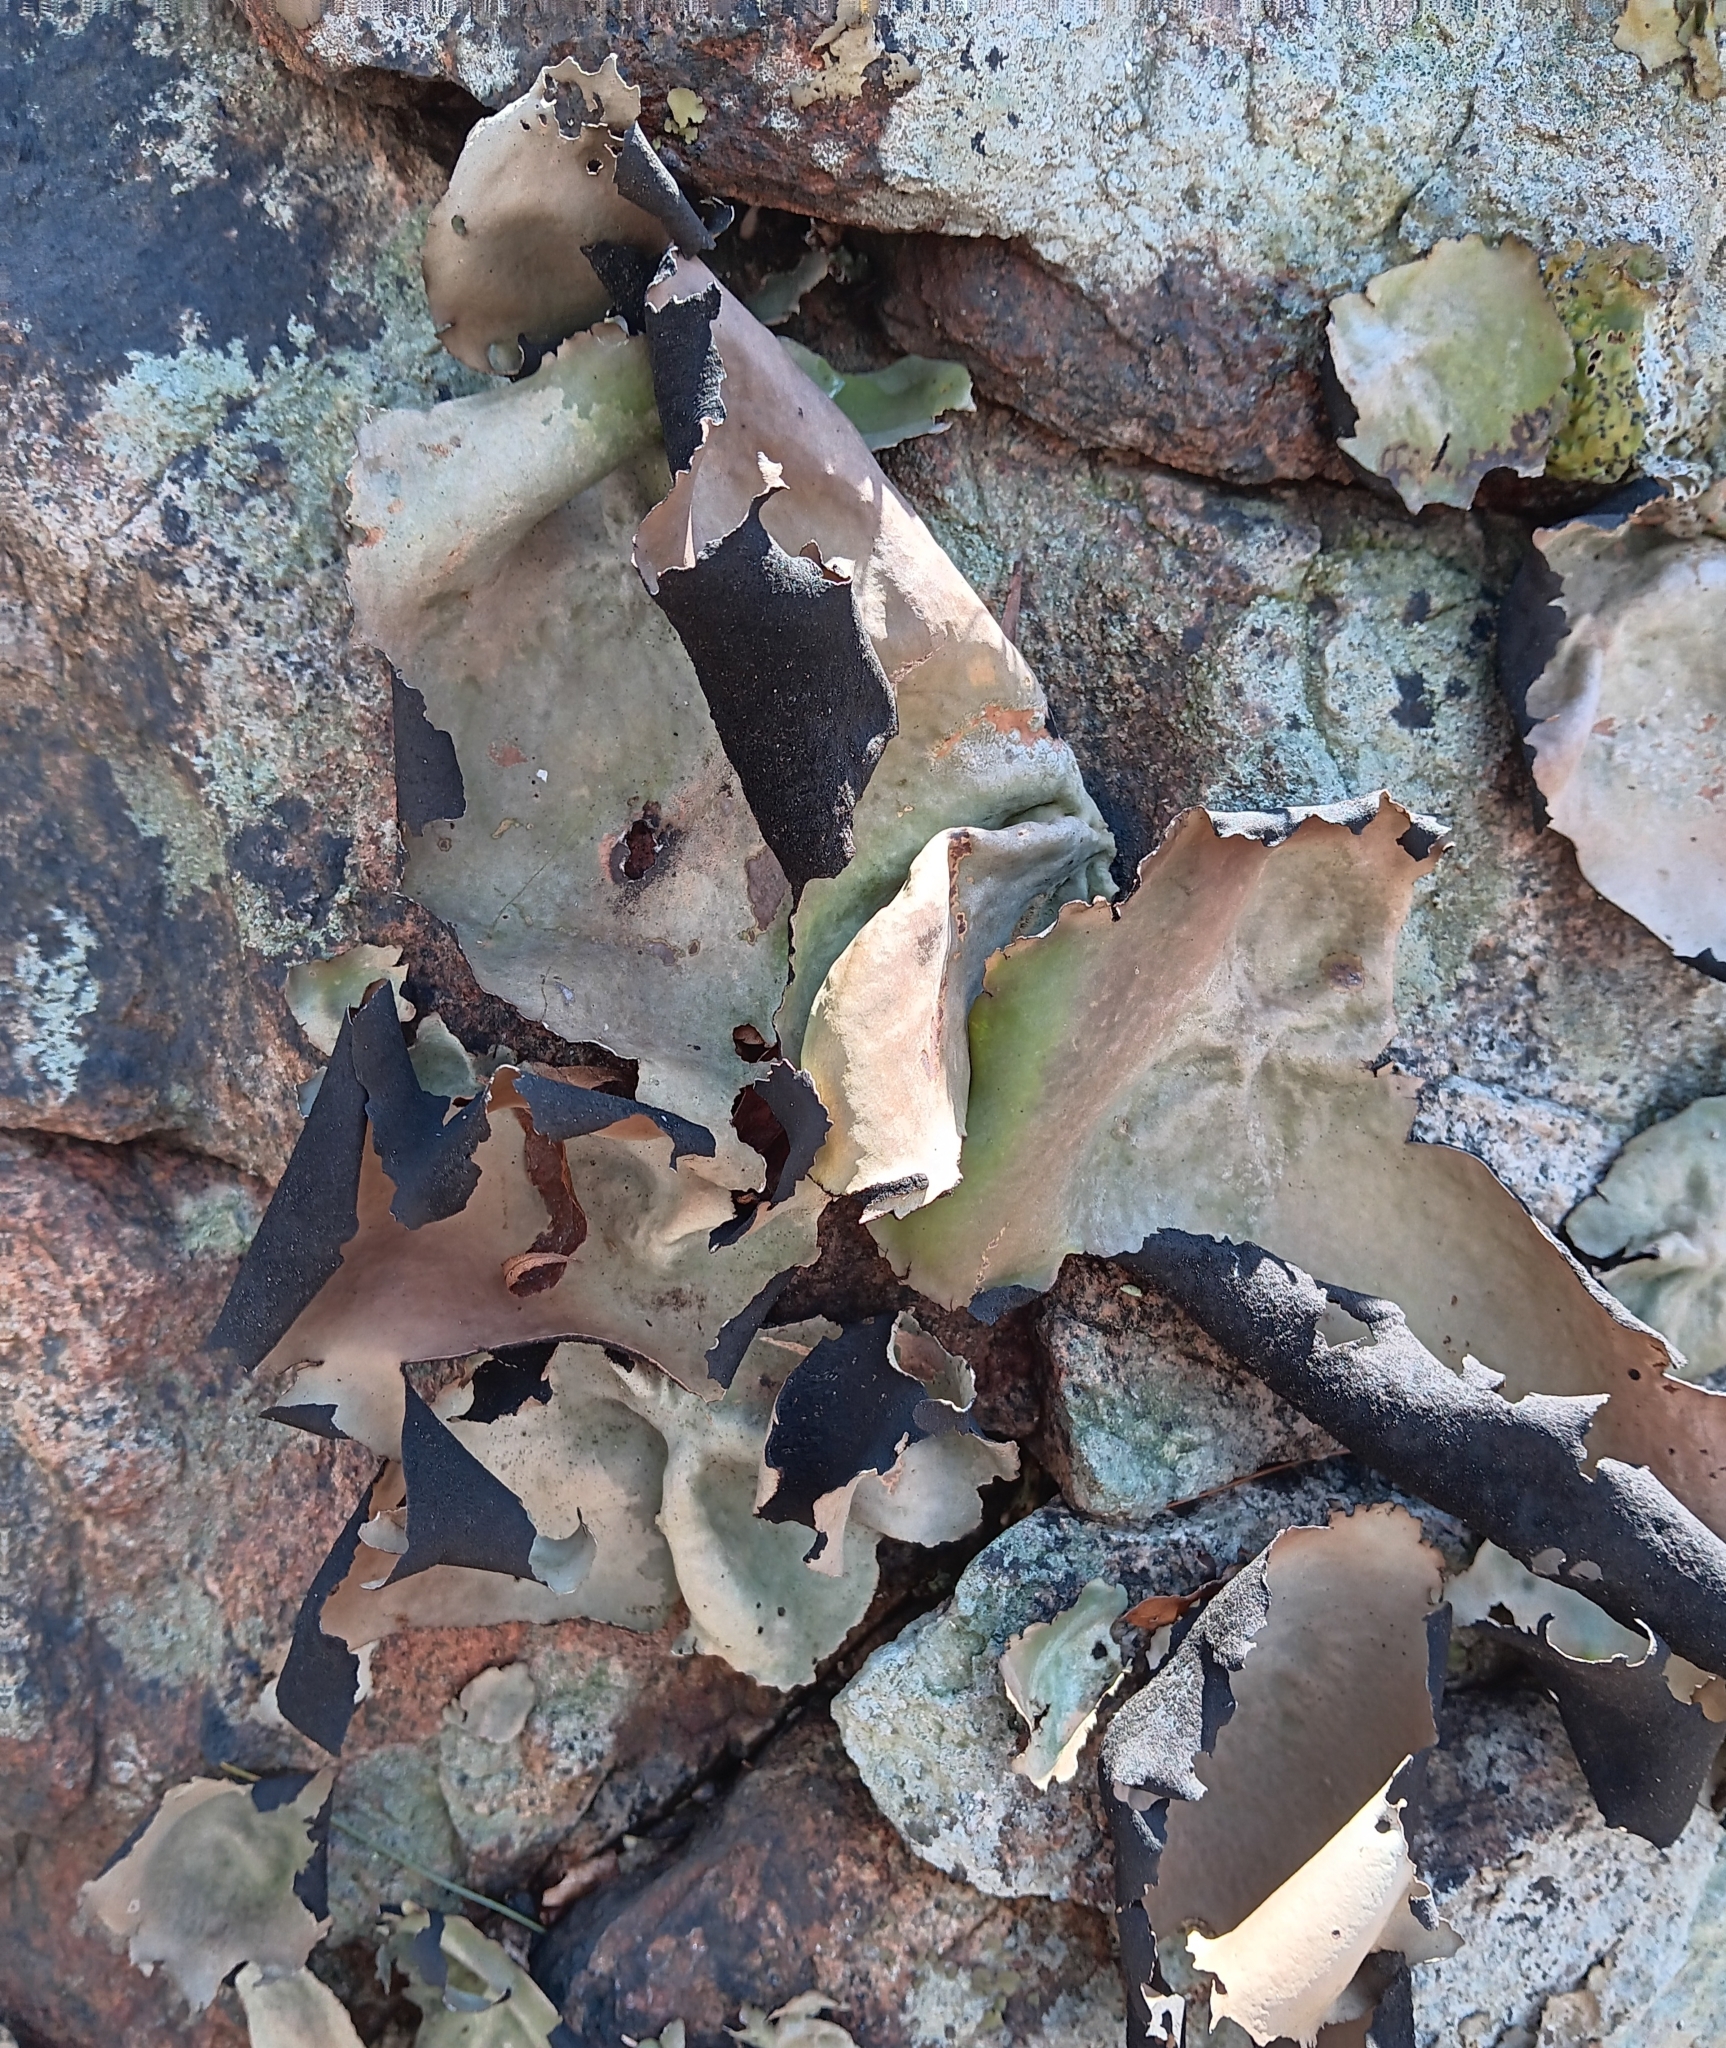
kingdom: Fungi
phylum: Ascomycota
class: Lecanoromycetes
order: Umbilicariales
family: Umbilicariaceae
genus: Umbilicaria
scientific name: Umbilicaria mammulata
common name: Smooth rock tripe
